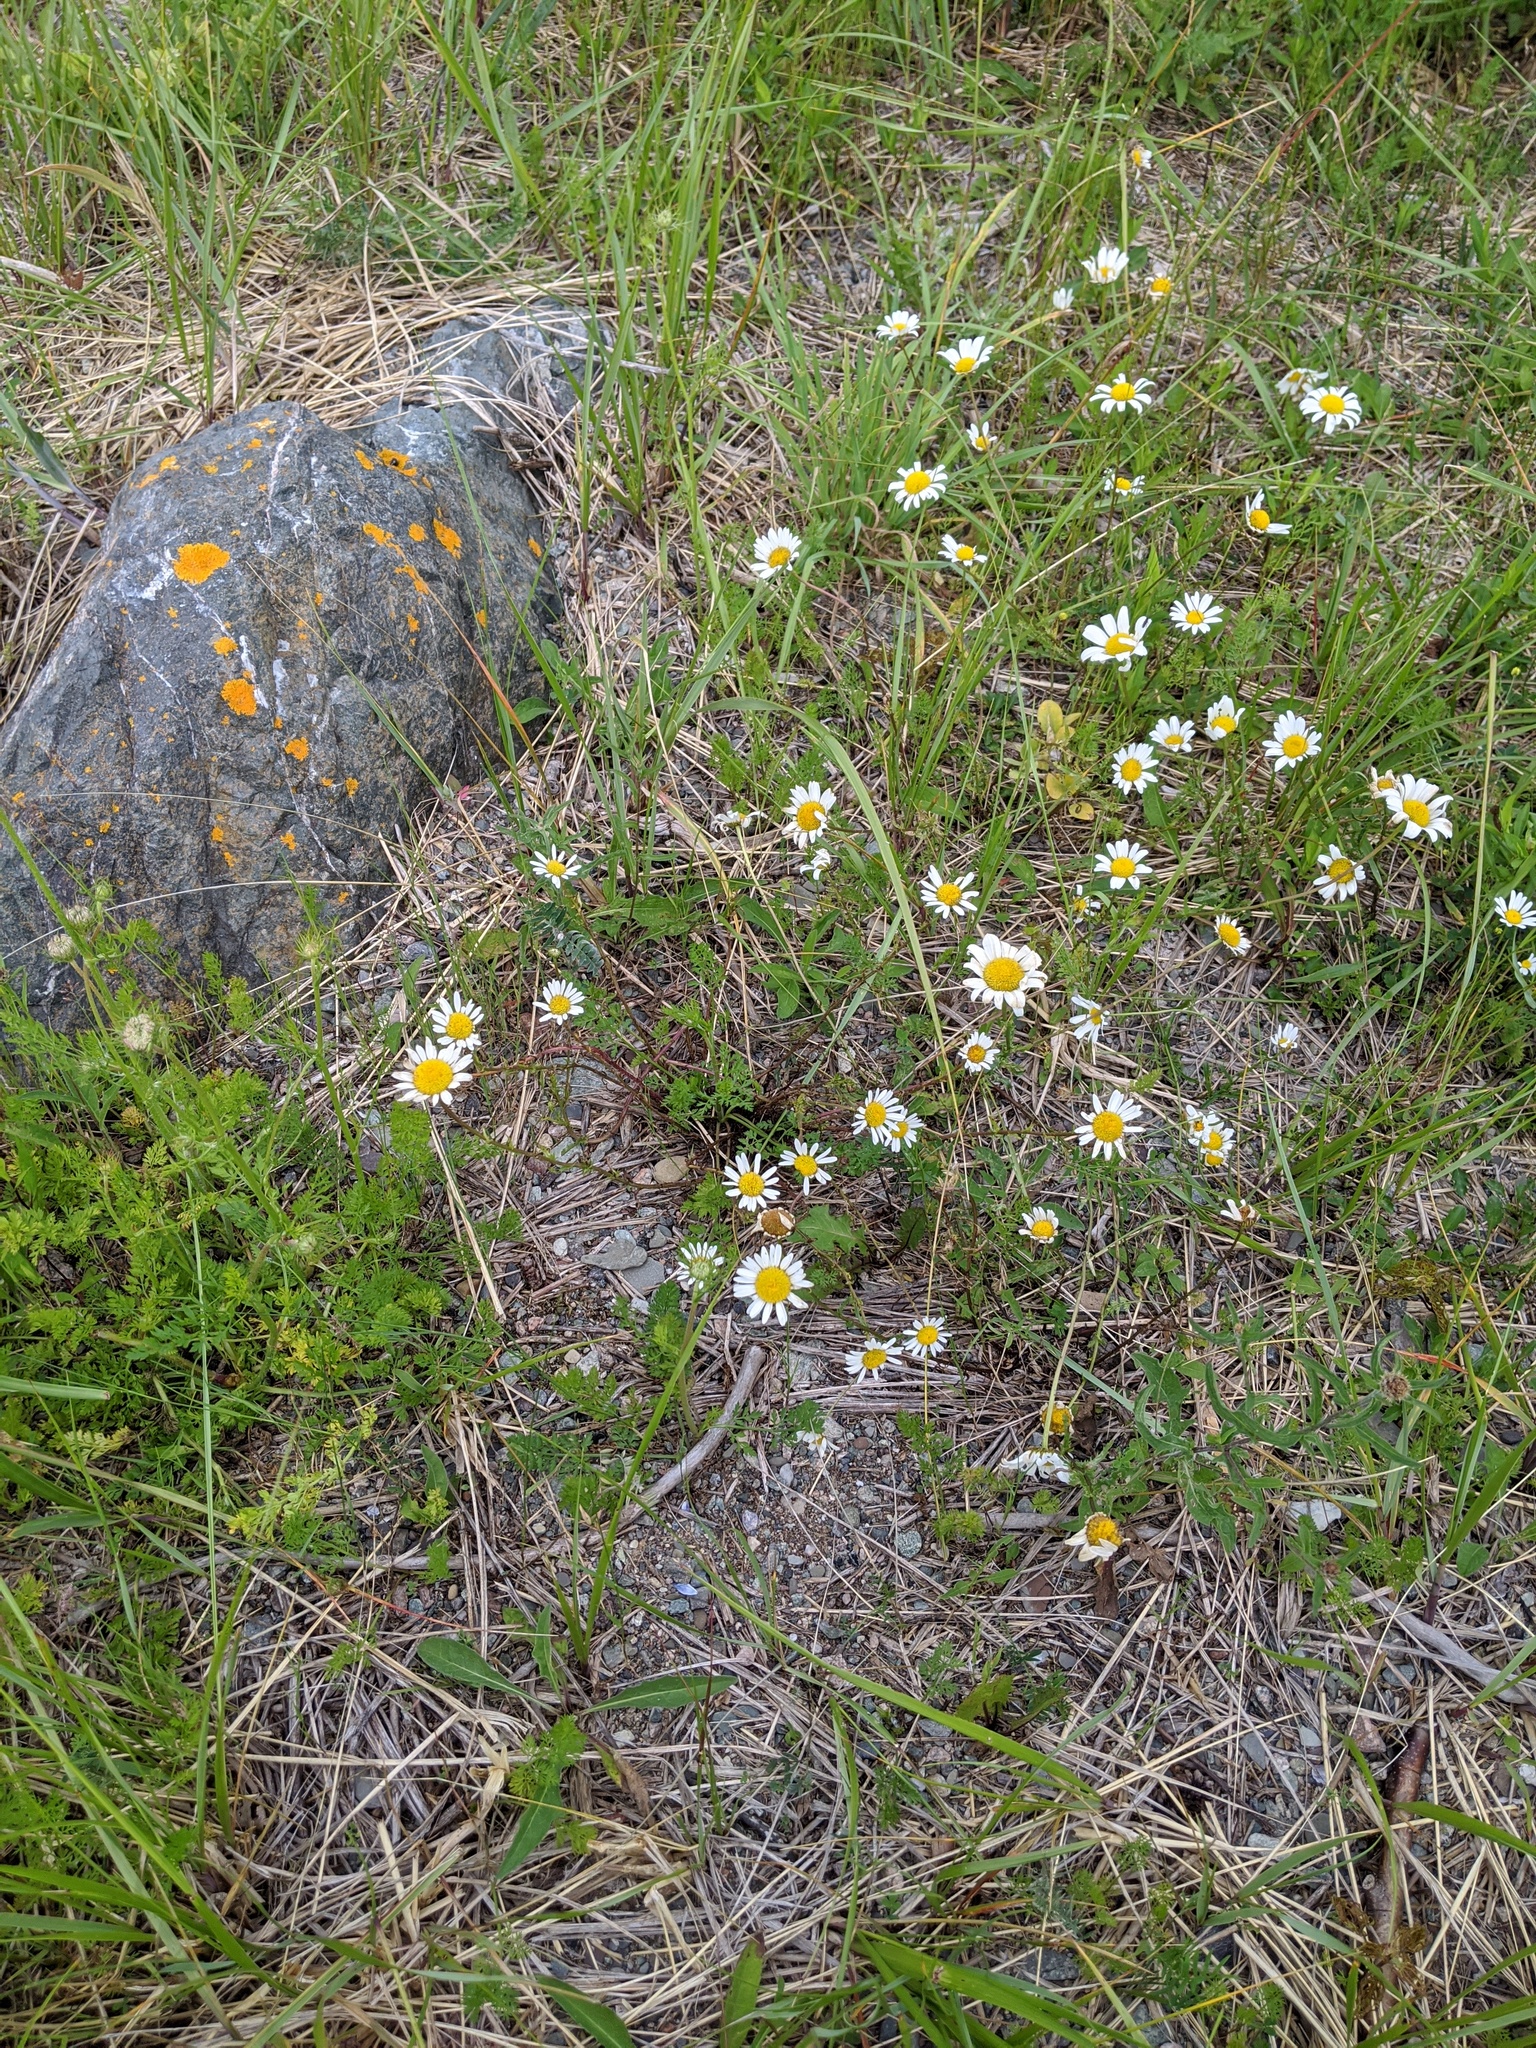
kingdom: Plantae
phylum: Tracheophyta
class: Magnoliopsida
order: Asterales
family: Asteraceae
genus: Leucanthemum
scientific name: Leucanthemum vulgare
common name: Oxeye daisy
